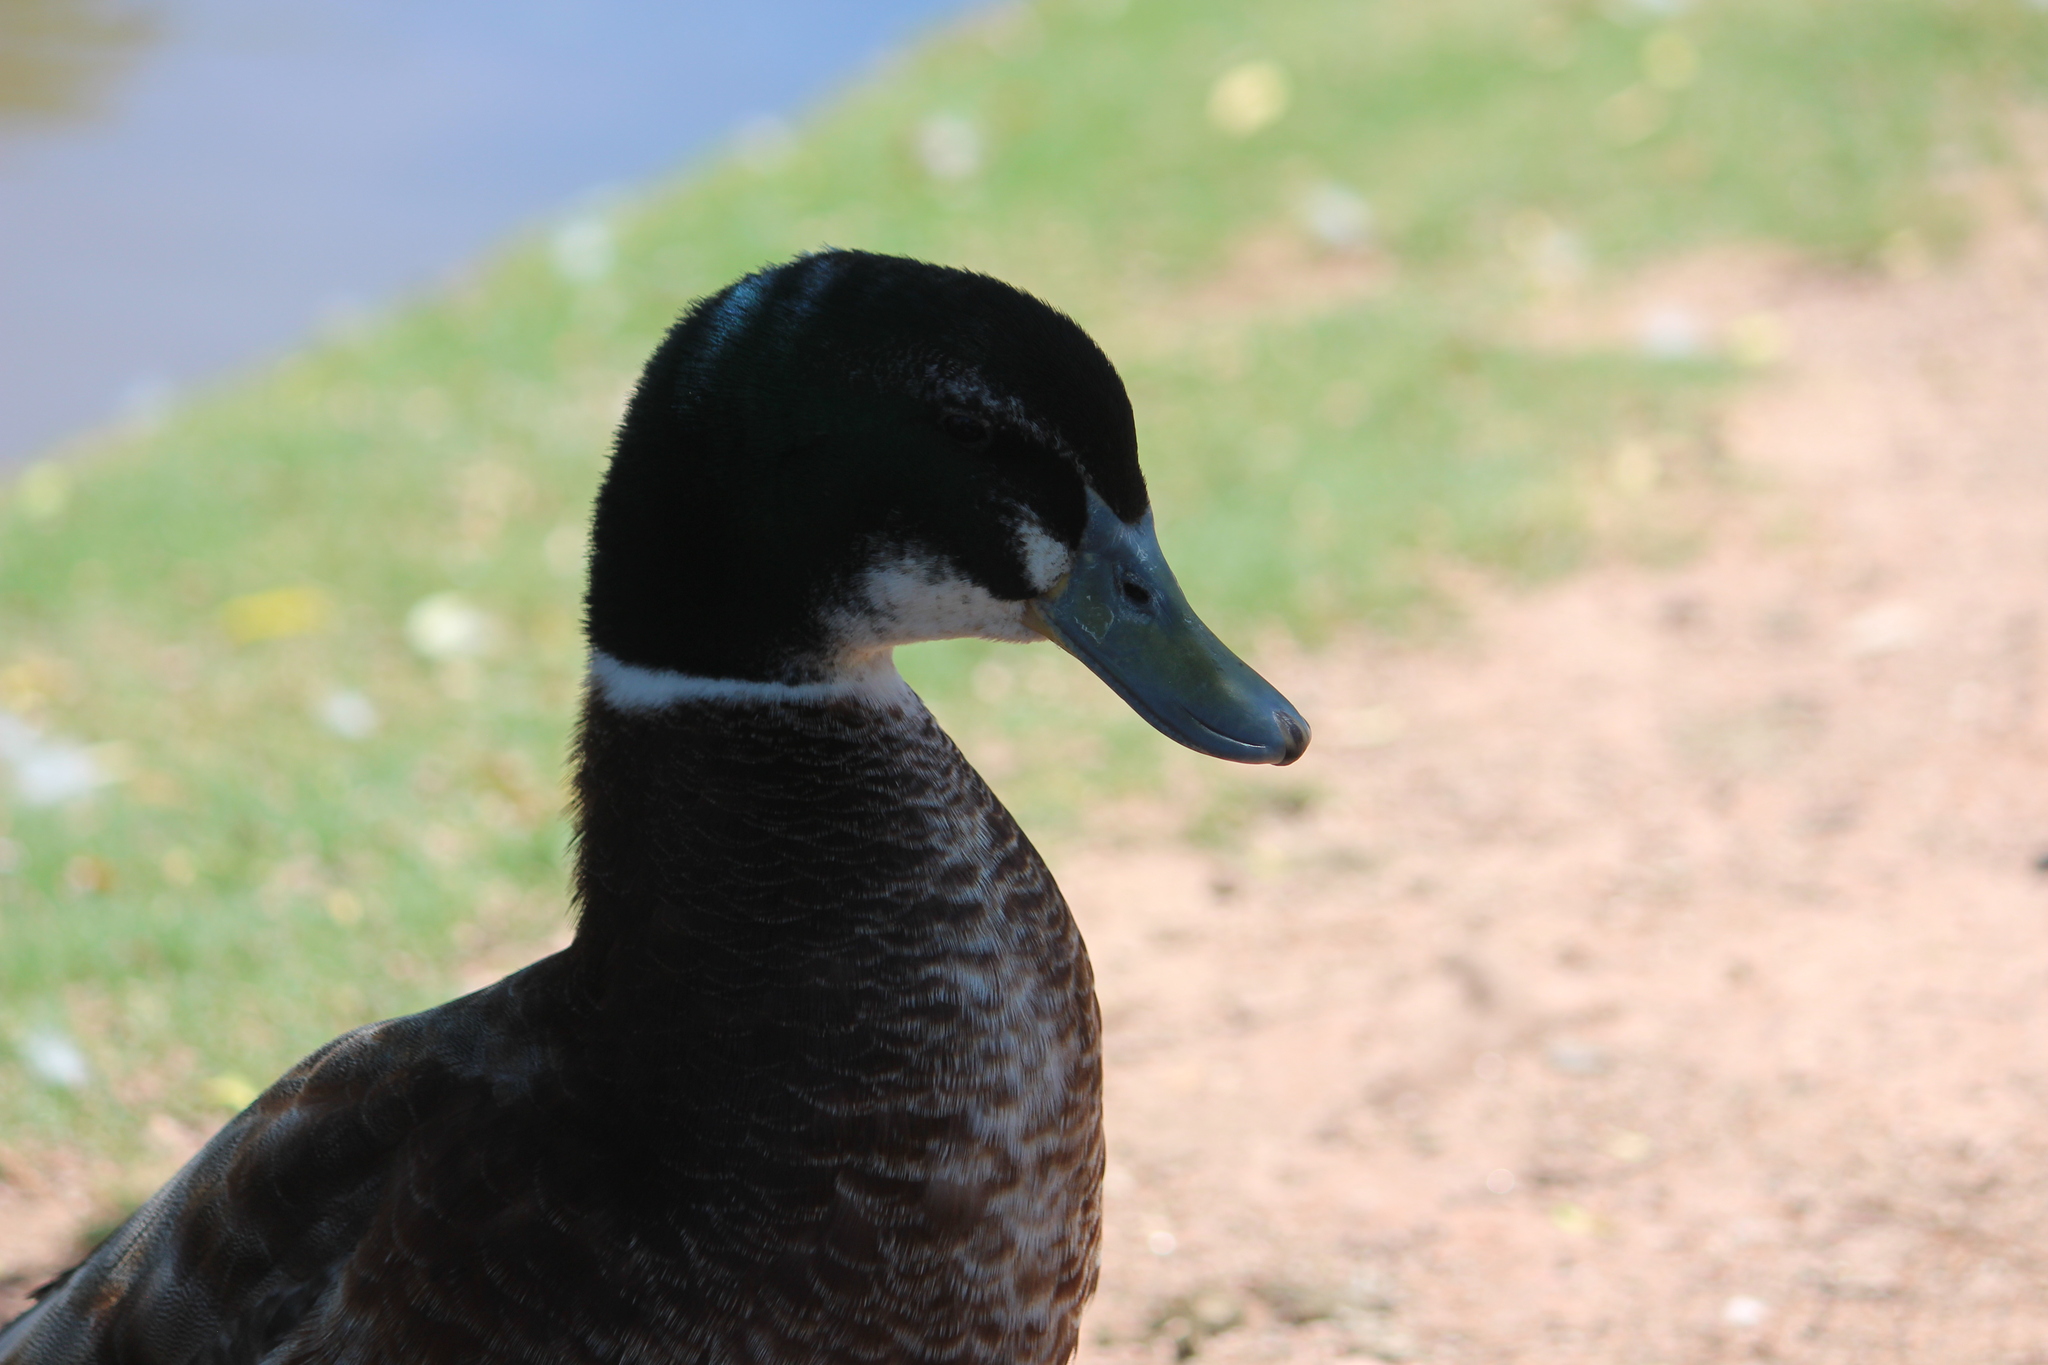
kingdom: Animalia
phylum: Chordata
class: Aves
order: Anseriformes
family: Anatidae
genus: Anas
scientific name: Anas platyrhynchos
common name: Mallard
